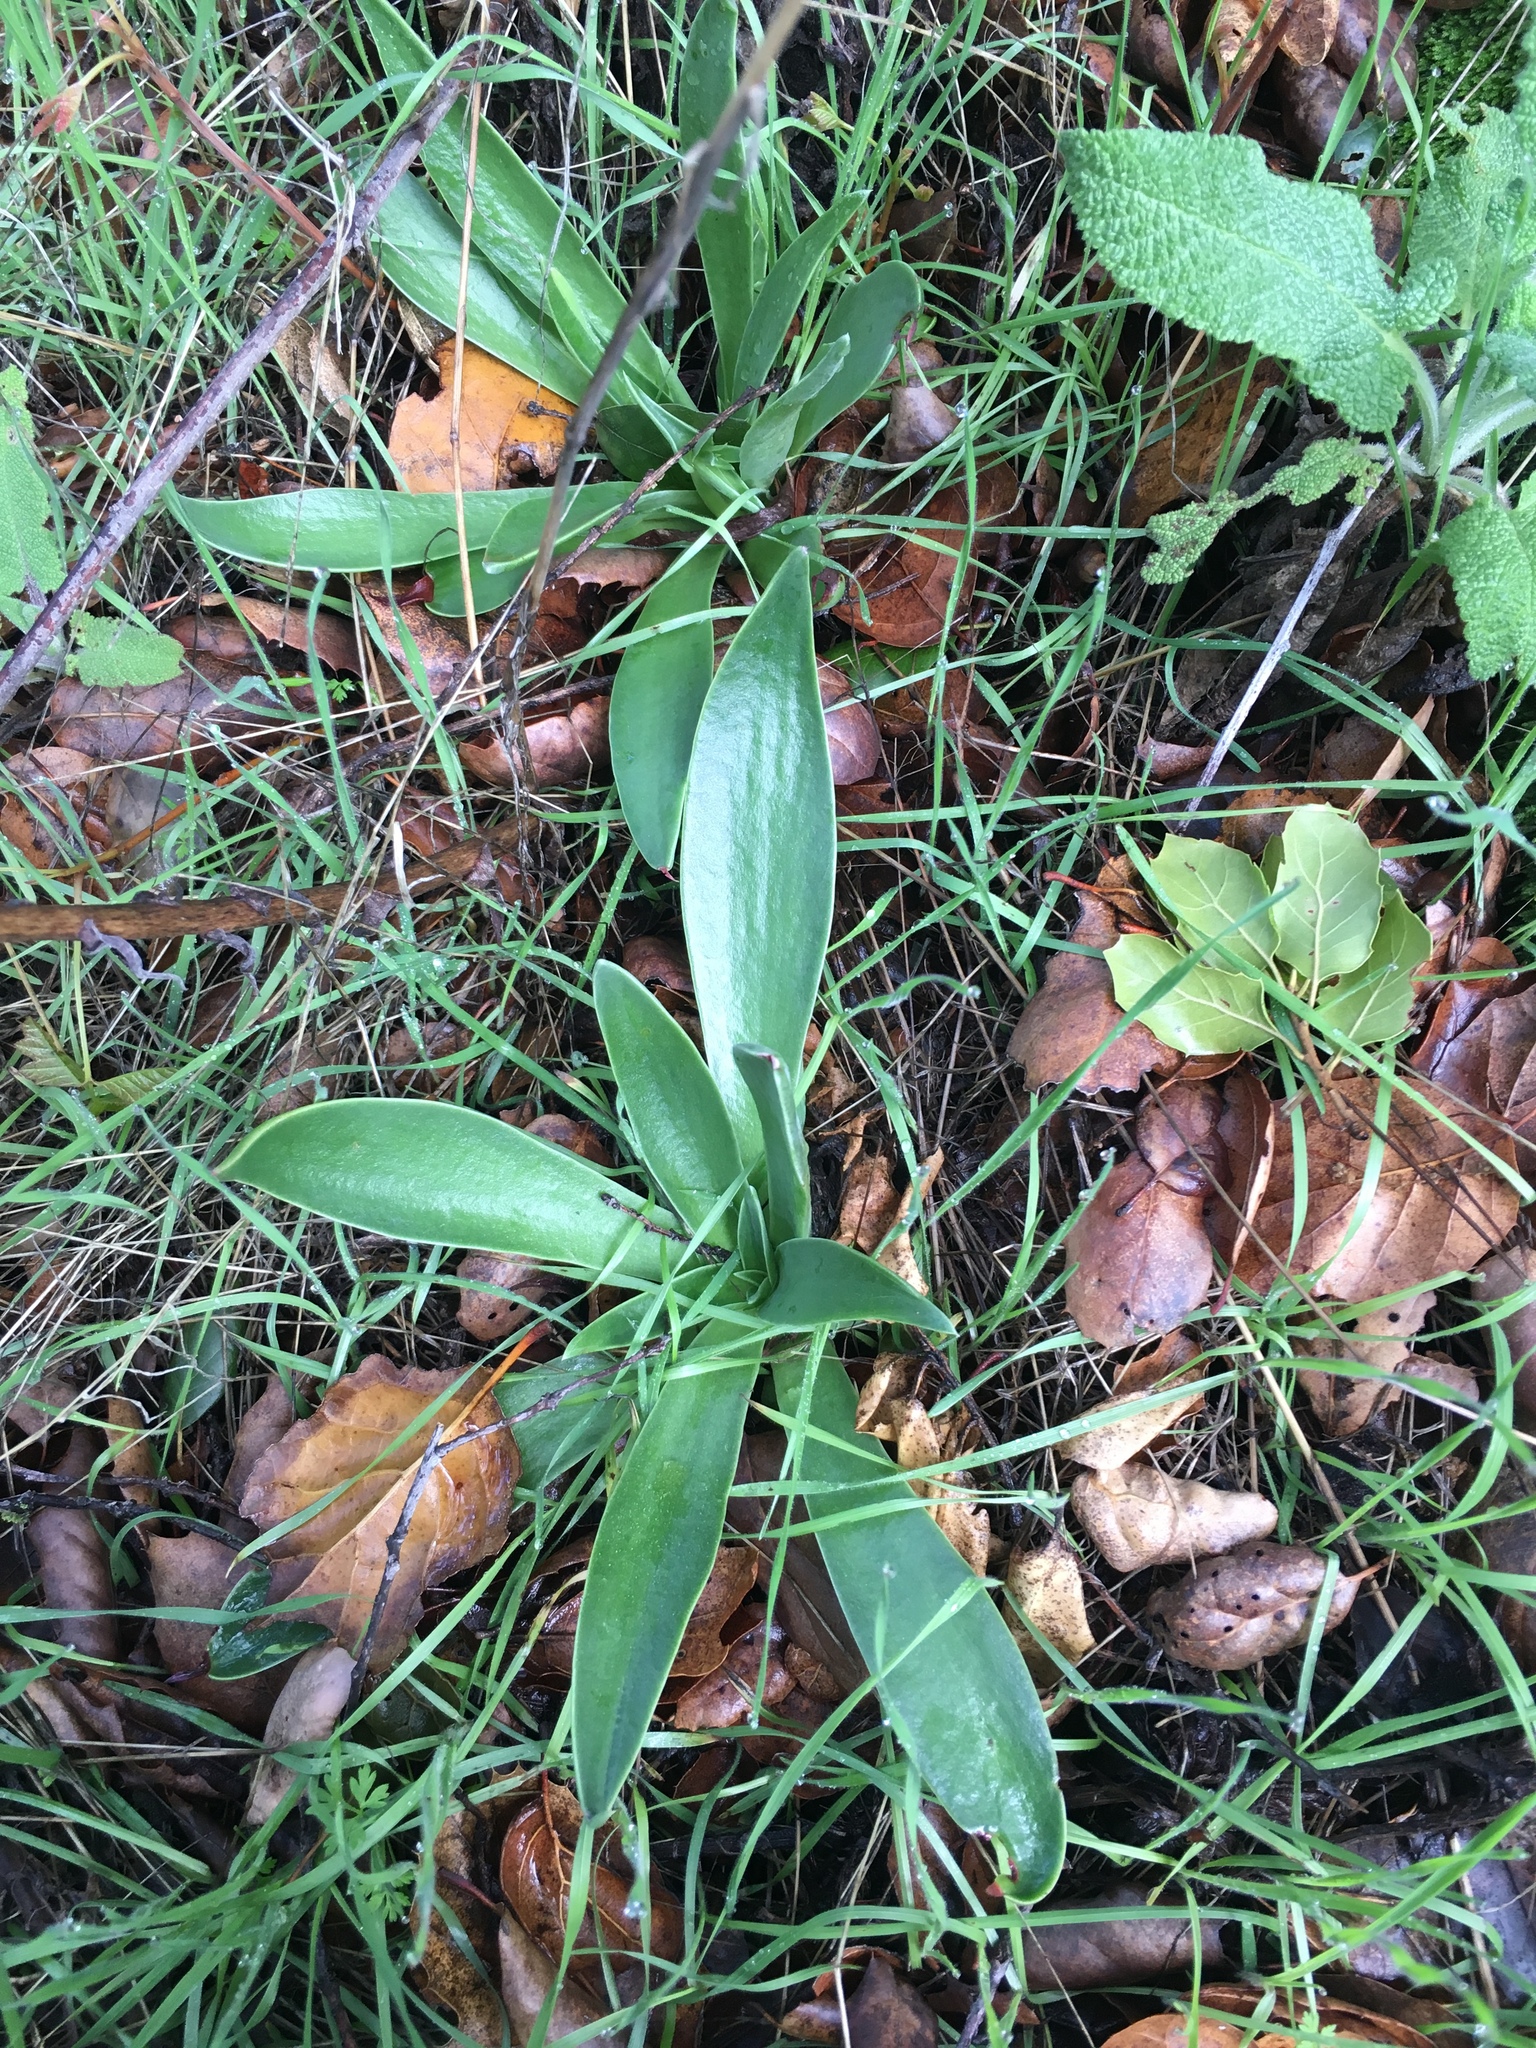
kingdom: Plantae
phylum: Tracheophyta
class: Magnoliopsida
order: Saxifragales
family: Crassulaceae
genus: Dudleya
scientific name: Dudleya lanceolata
